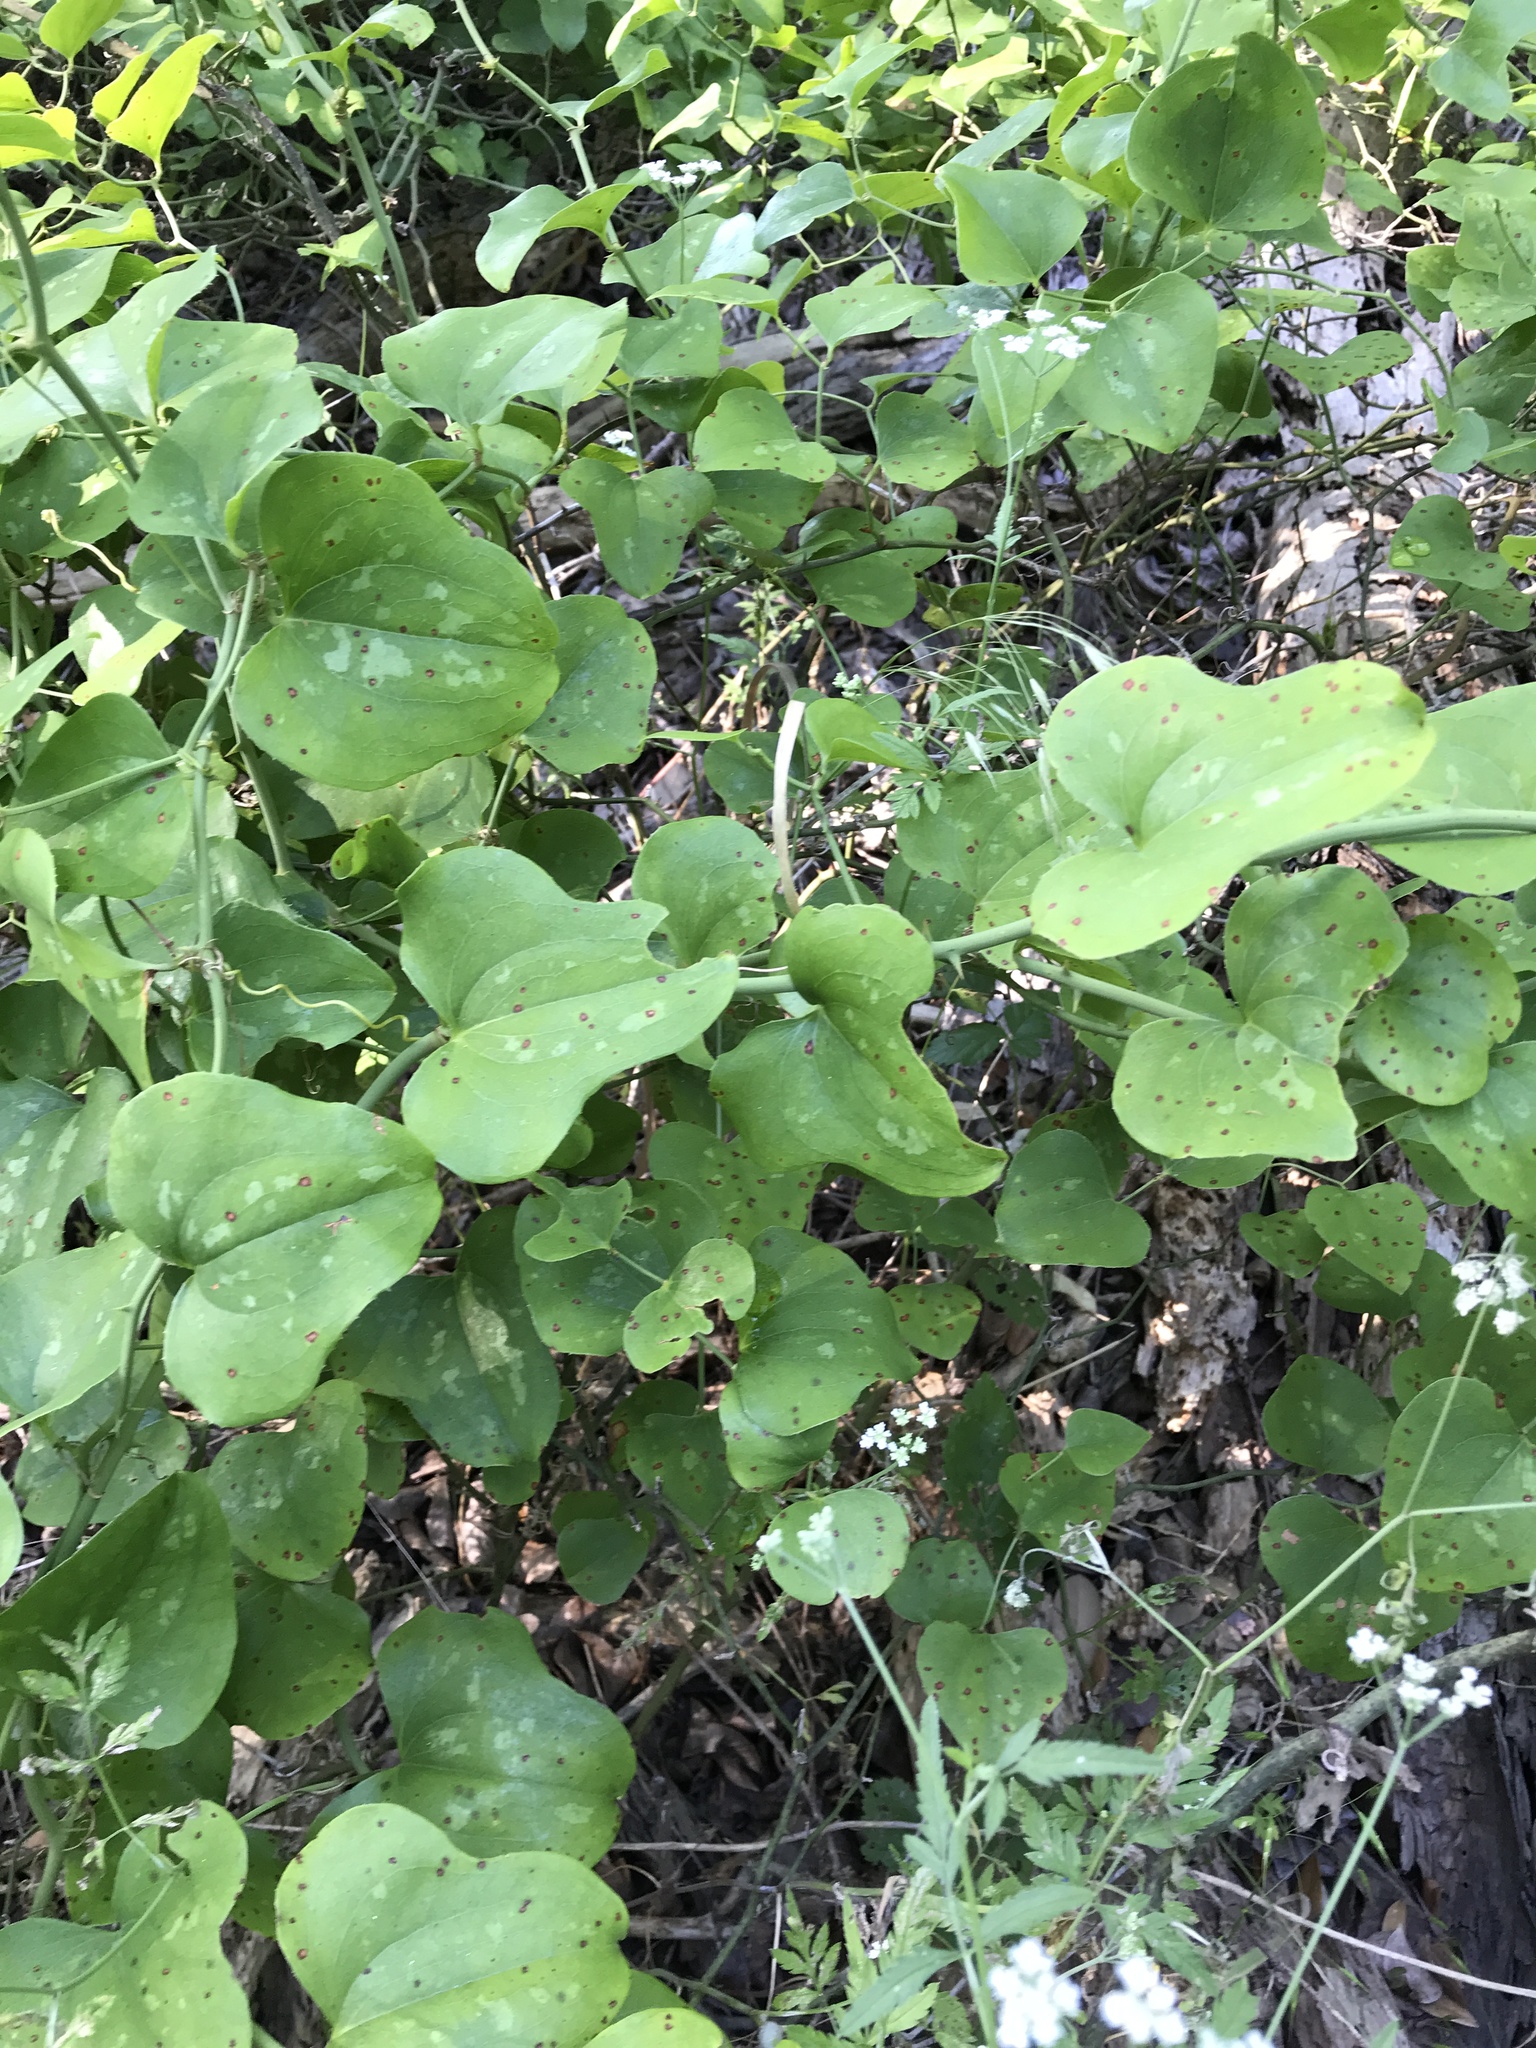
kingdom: Plantae
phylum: Tracheophyta
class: Liliopsida
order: Liliales
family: Smilacaceae
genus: Smilax
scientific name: Smilax bona-nox
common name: Catbrier
